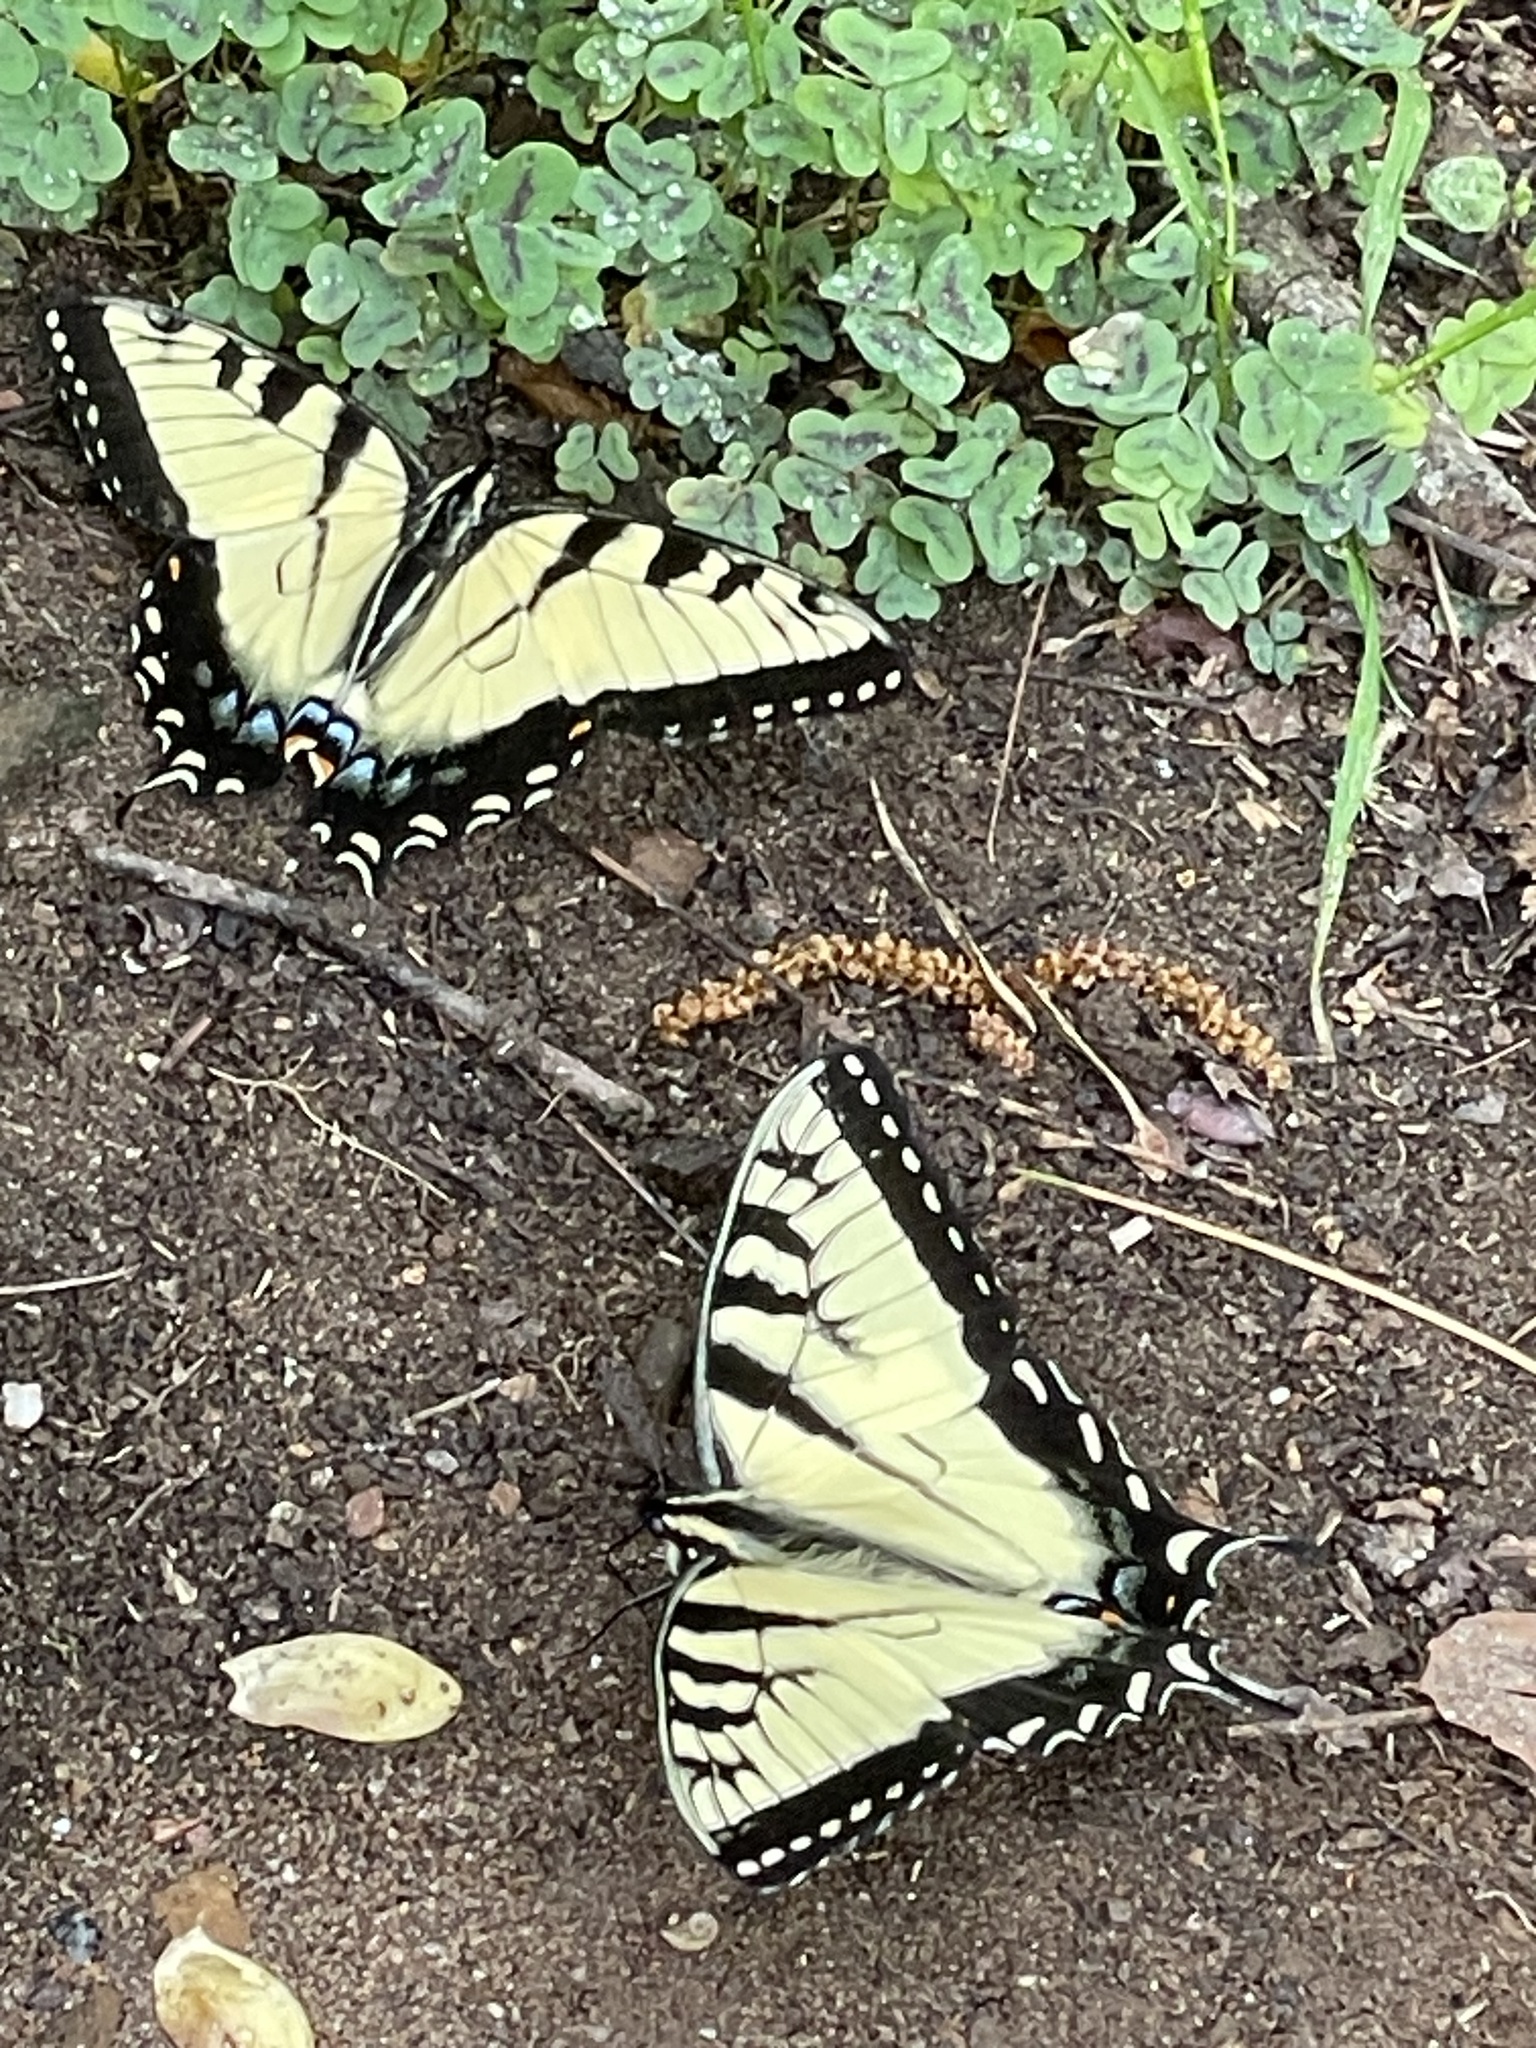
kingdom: Animalia
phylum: Arthropoda
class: Insecta
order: Lepidoptera
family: Papilionidae
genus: Papilio
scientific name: Papilio glaucus
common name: Tiger swallowtail
